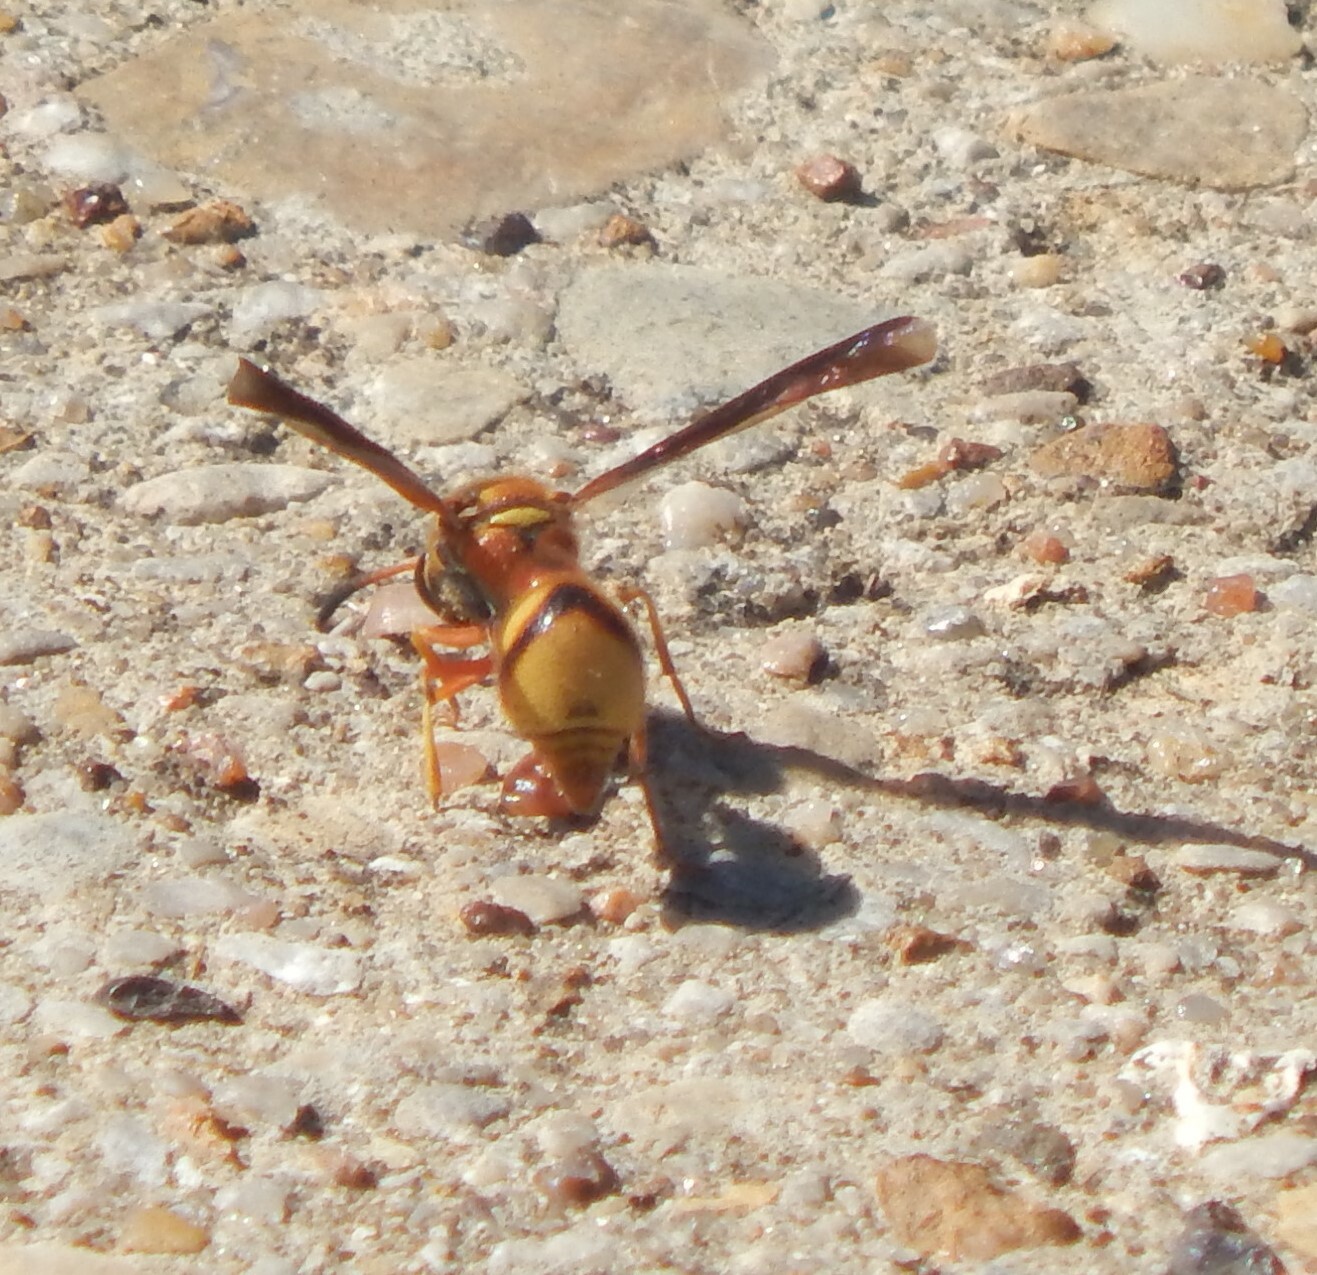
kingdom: Animalia
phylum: Arthropoda
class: Insecta
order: Hymenoptera
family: Vespidae
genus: Eumenes
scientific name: Eumenes bollii
